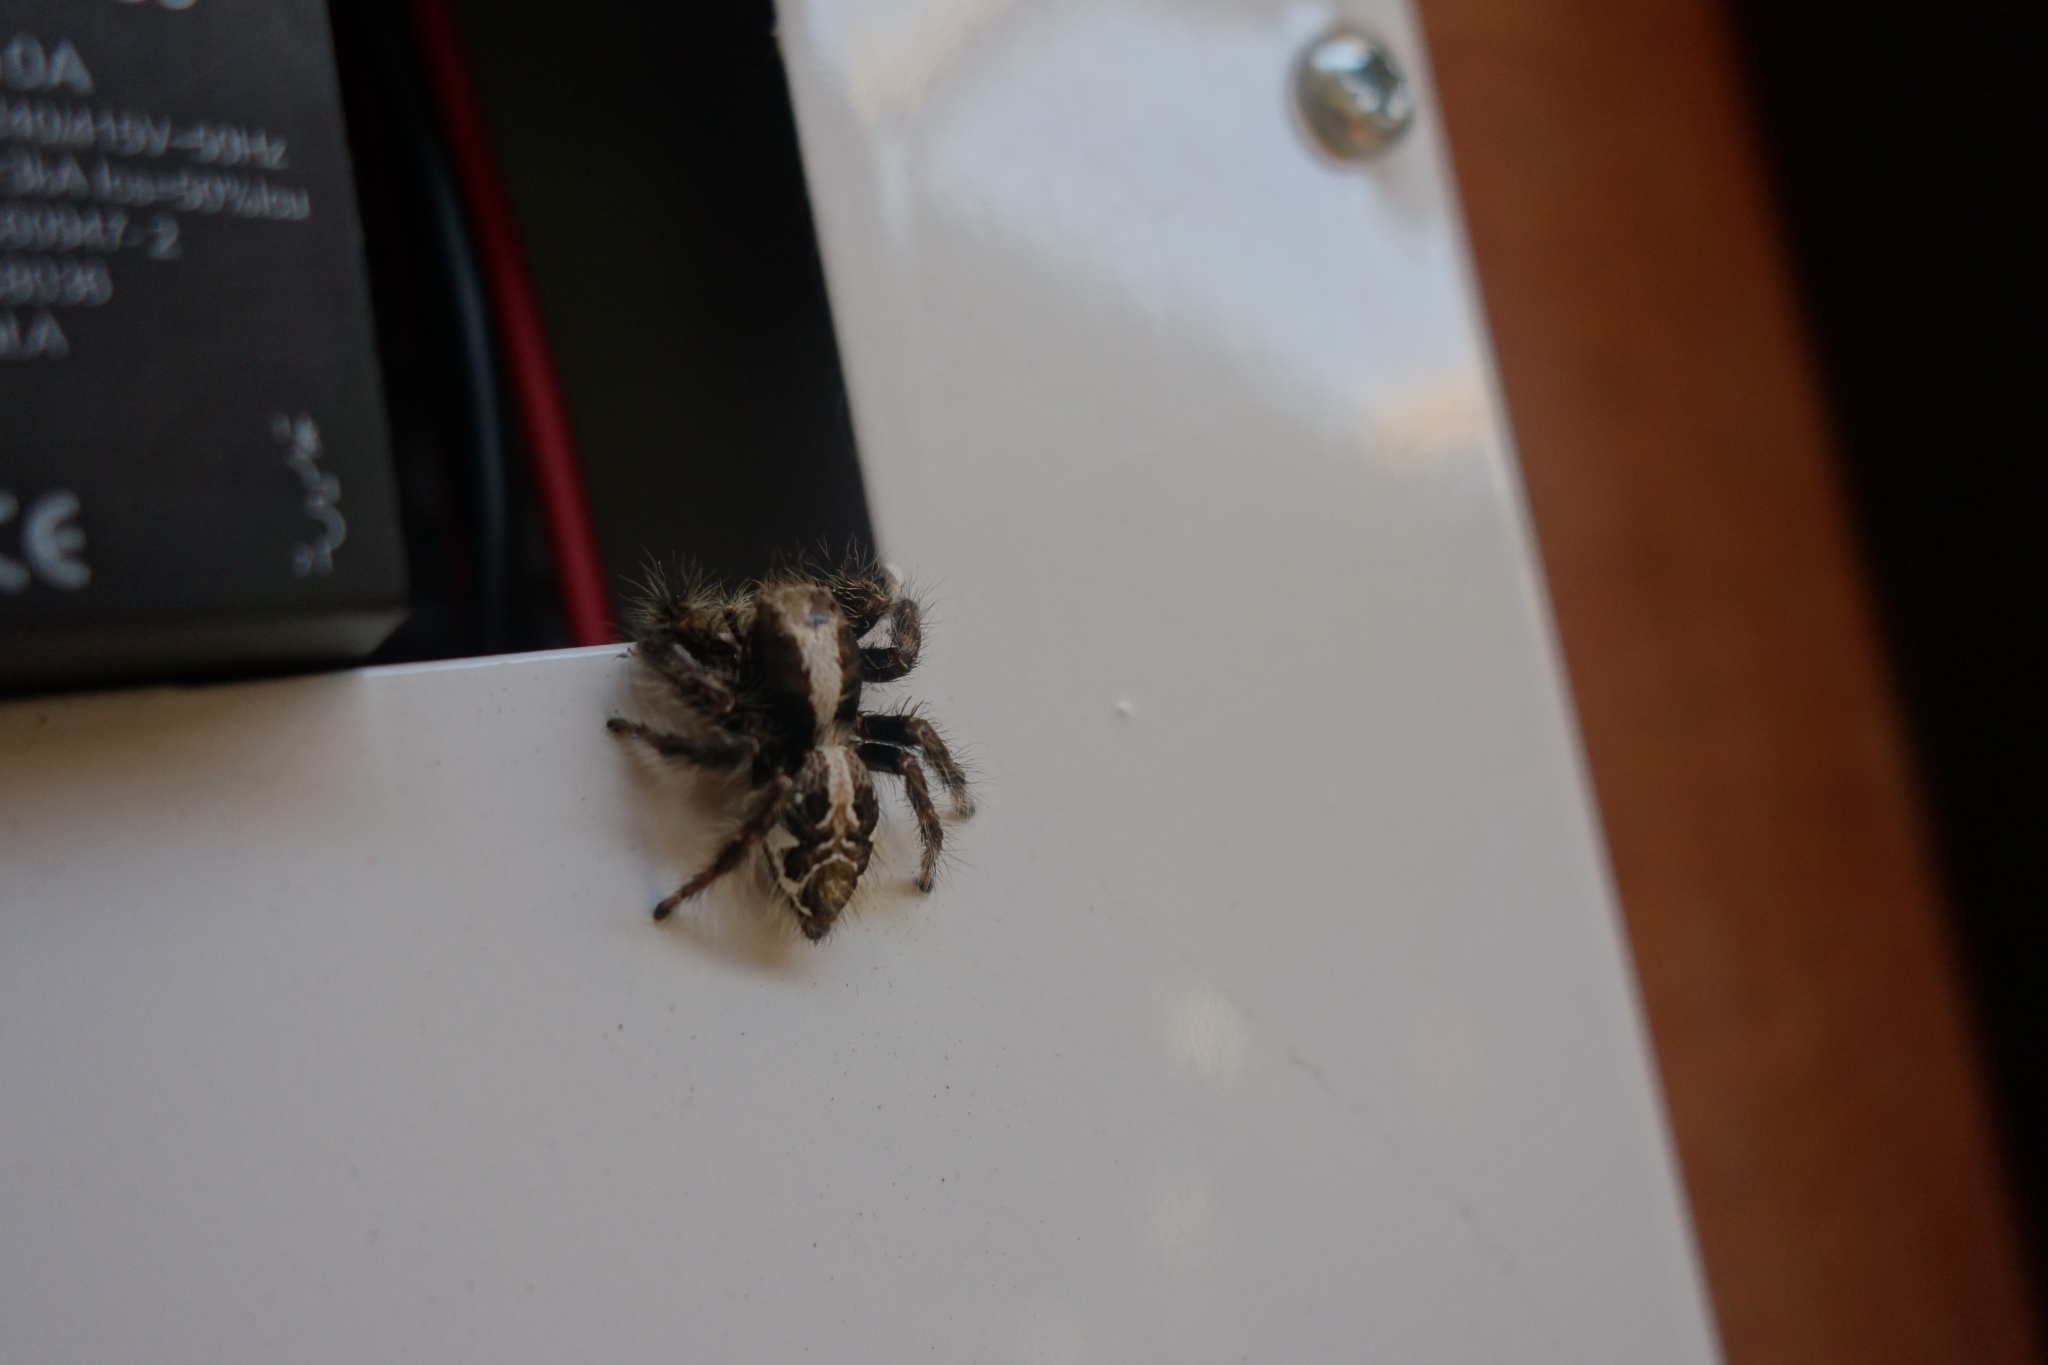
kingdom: Animalia
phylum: Arthropoda
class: Arachnida
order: Araneae
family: Salticidae
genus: Hyllus
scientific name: Hyllus treleaveni
